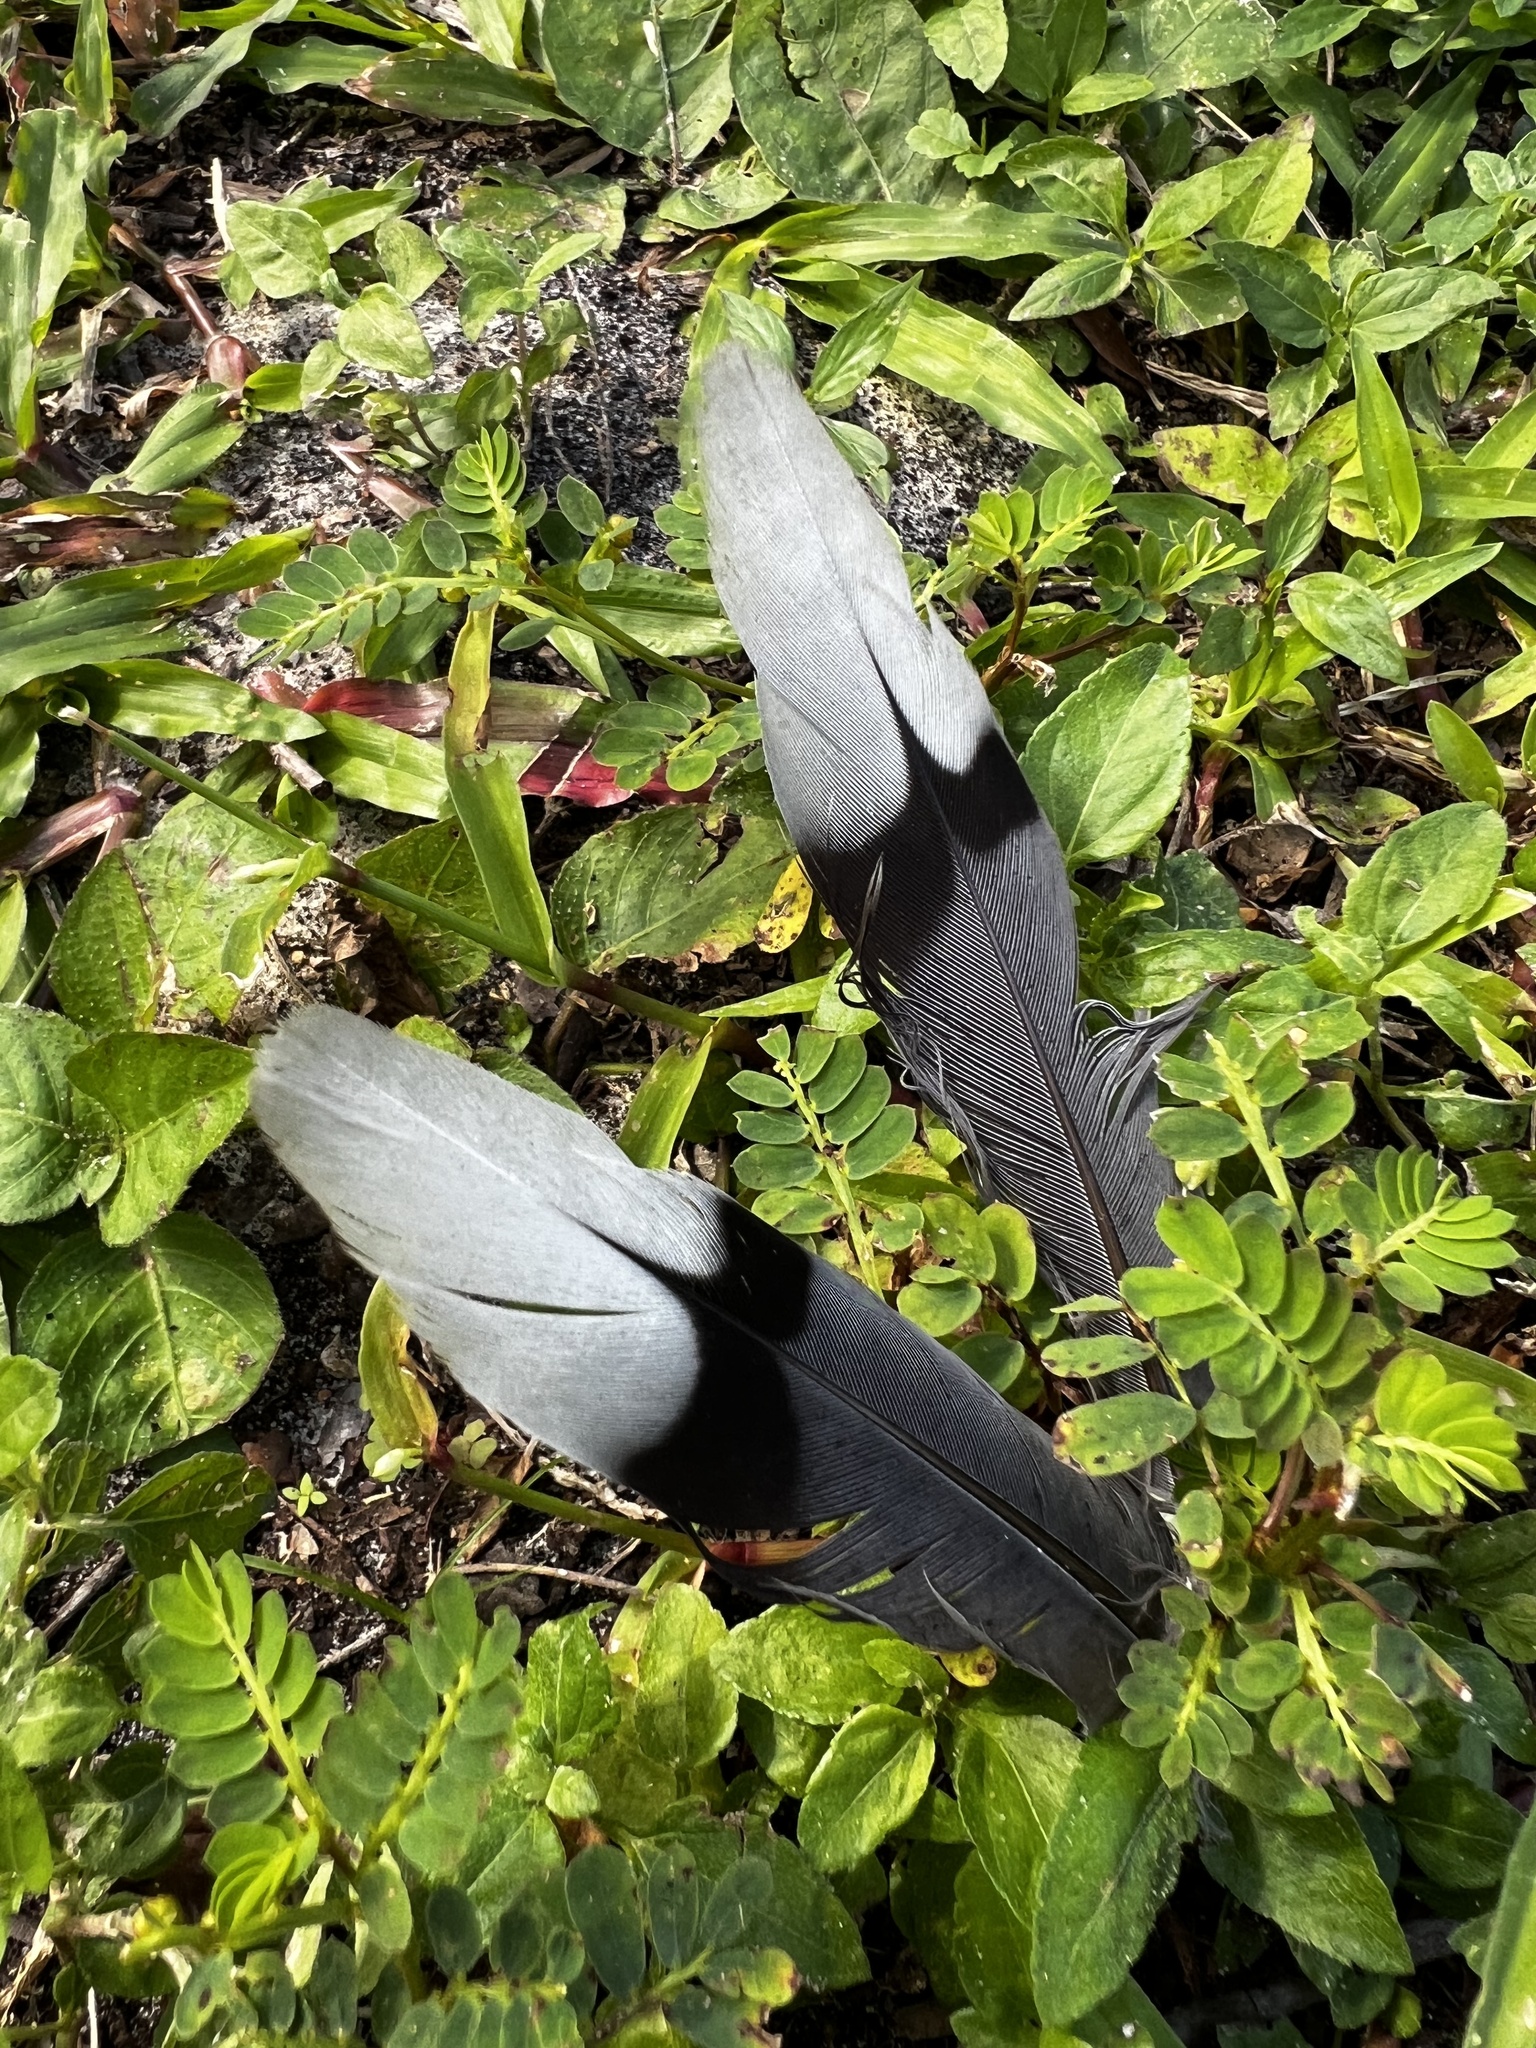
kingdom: Animalia
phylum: Chordata
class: Aves
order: Columbiformes
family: Columbidae
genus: Zenaida
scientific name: Zenaida macroura
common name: Mourning dove
